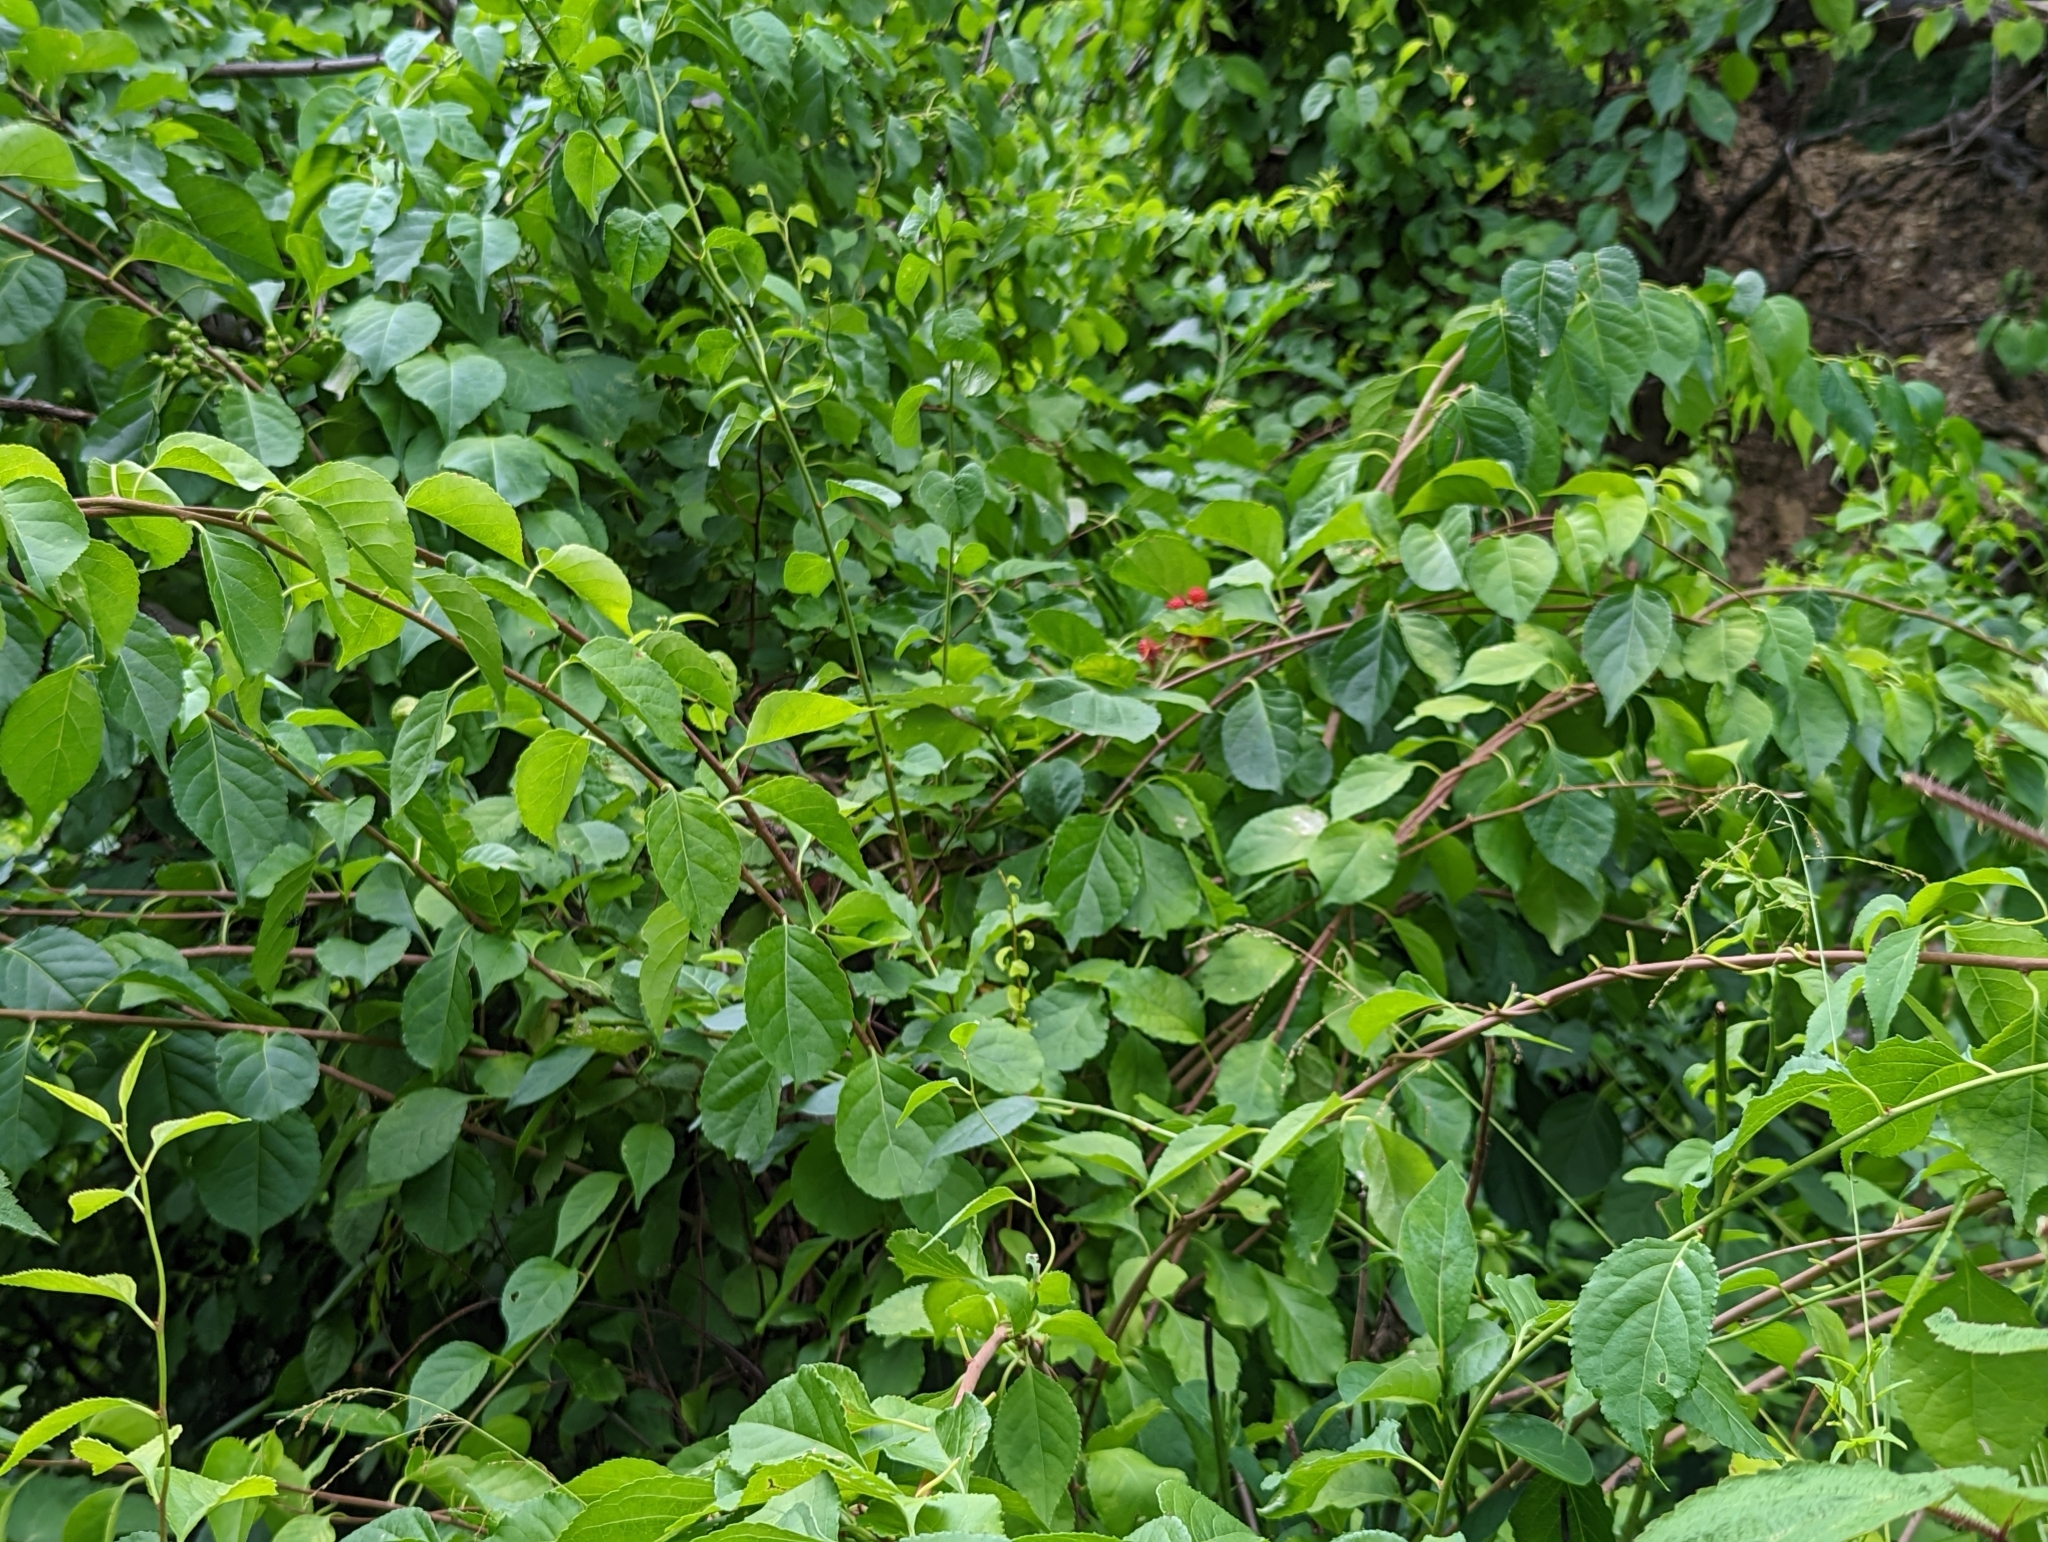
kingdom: Plantae
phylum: Tracheophyta
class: Magnoliopsida
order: Rosales
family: Rosaceae
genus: Rubus
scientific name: Rubus phoenicolasius
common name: Japanese wineberry
